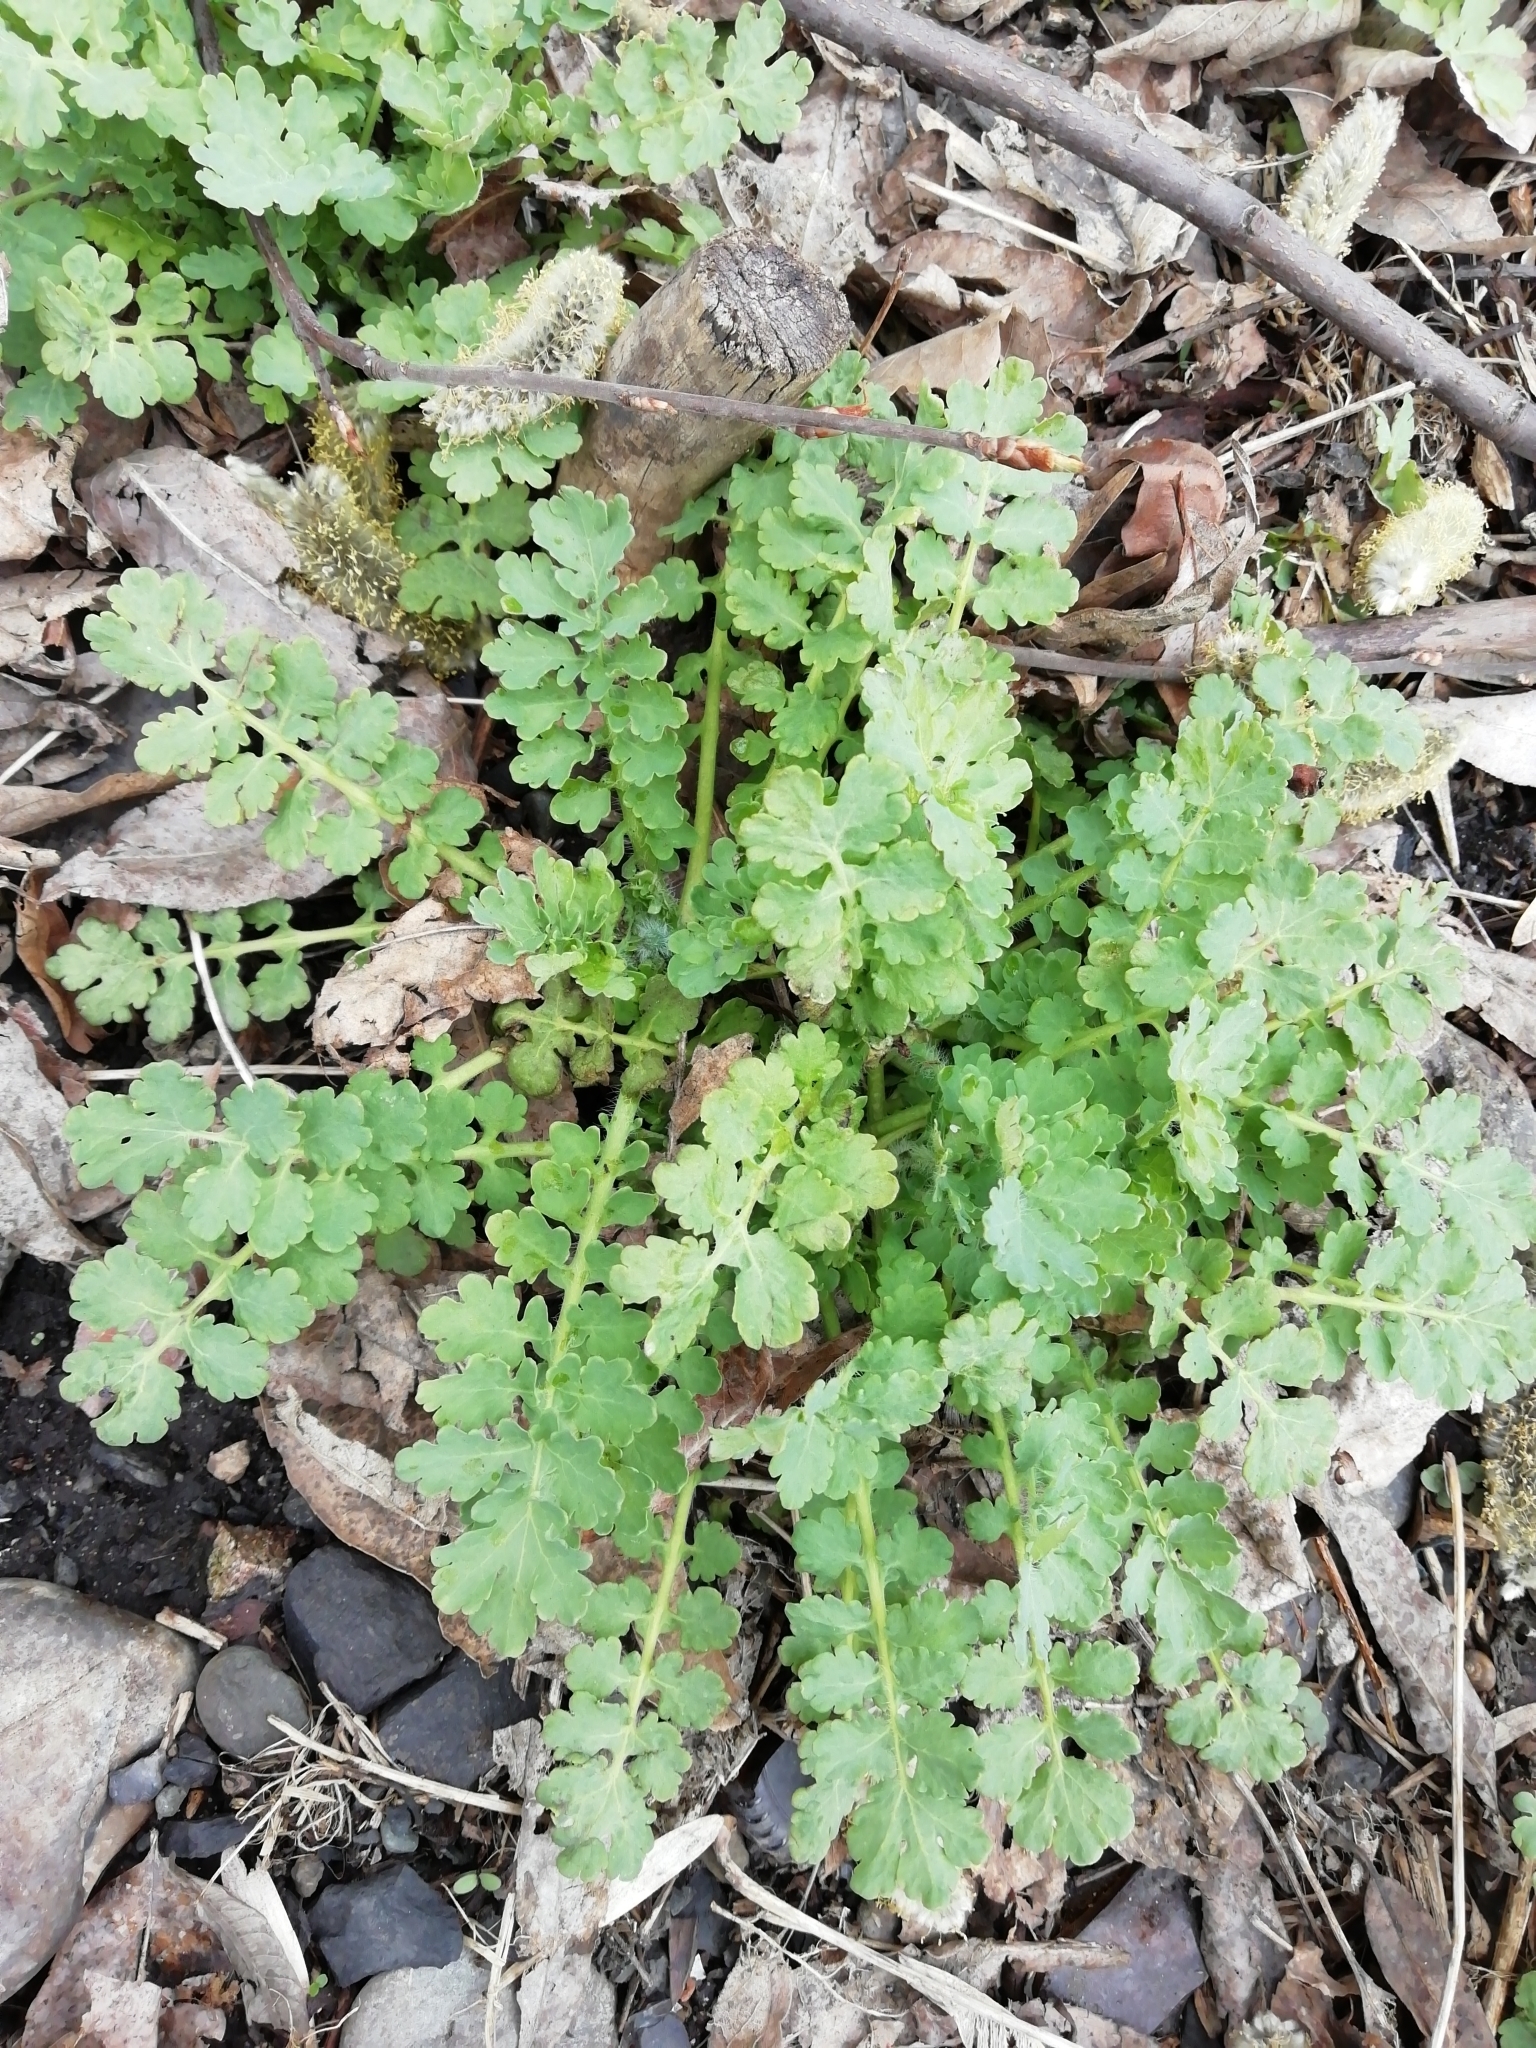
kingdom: Plantae
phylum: Tracheophyta
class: Magnoliopsida
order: Ranunculales
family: Papaveraceae
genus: Chelidonium
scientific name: Chelidonium majus
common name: Greater celandine
